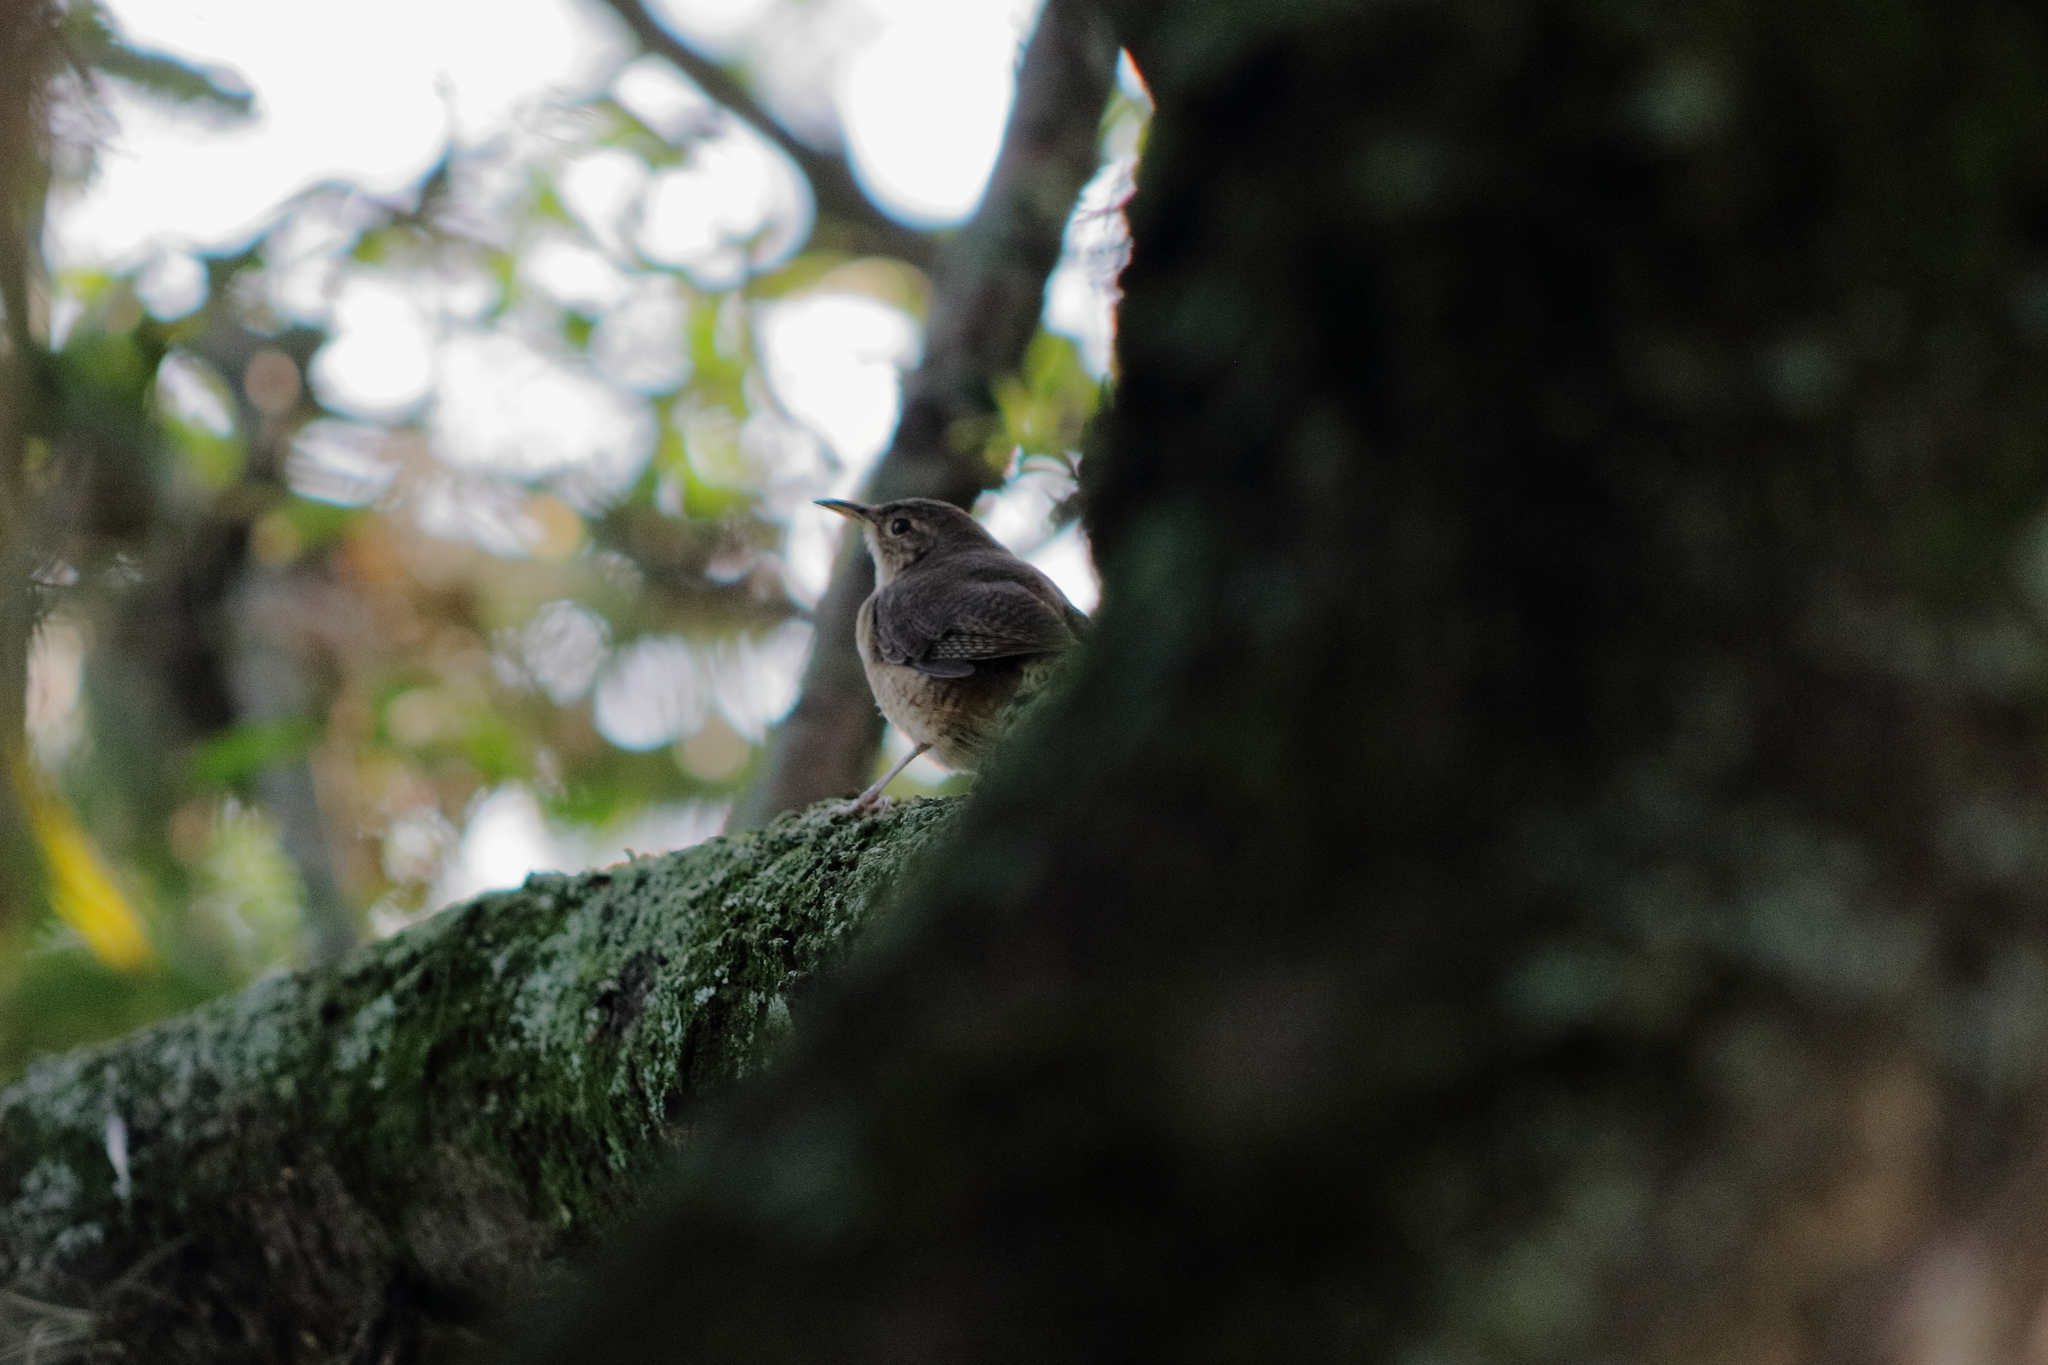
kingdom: Animalia
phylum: Chordata
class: Aves
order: Passeriformes
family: Troglodytidae
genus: Troglodytes
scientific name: Troglodytes aedon
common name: House wren
